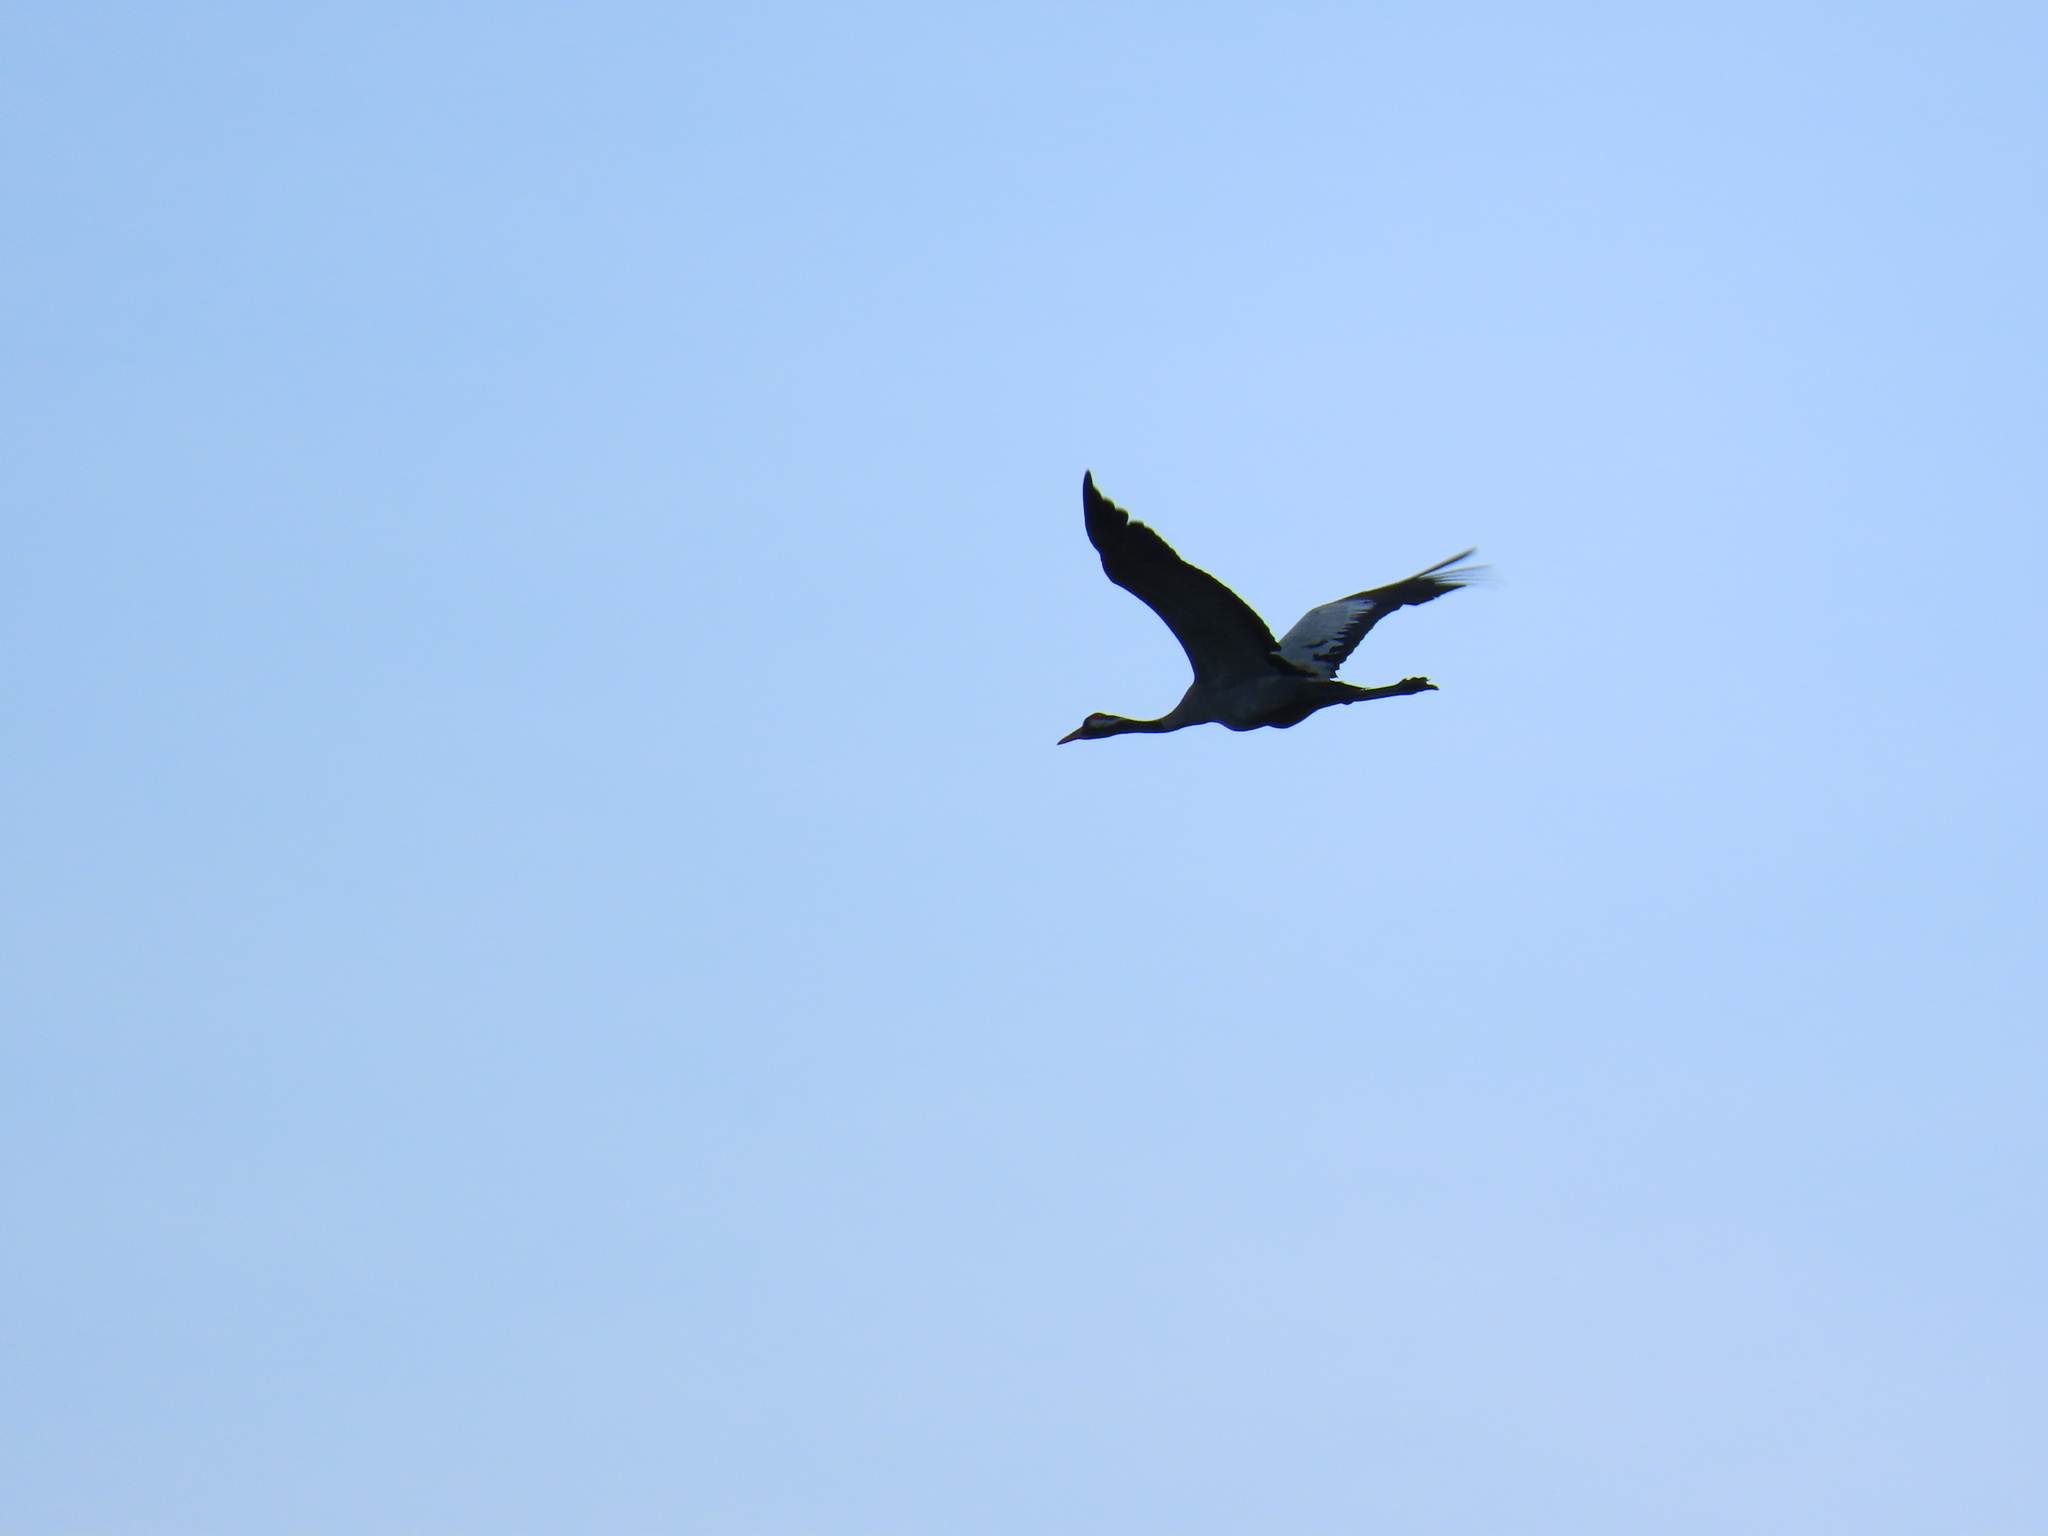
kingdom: Animalia
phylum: Chordata
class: Aves
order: Gruiformes
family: Gruidae
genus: Grus
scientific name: Grus grus
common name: Common crane
